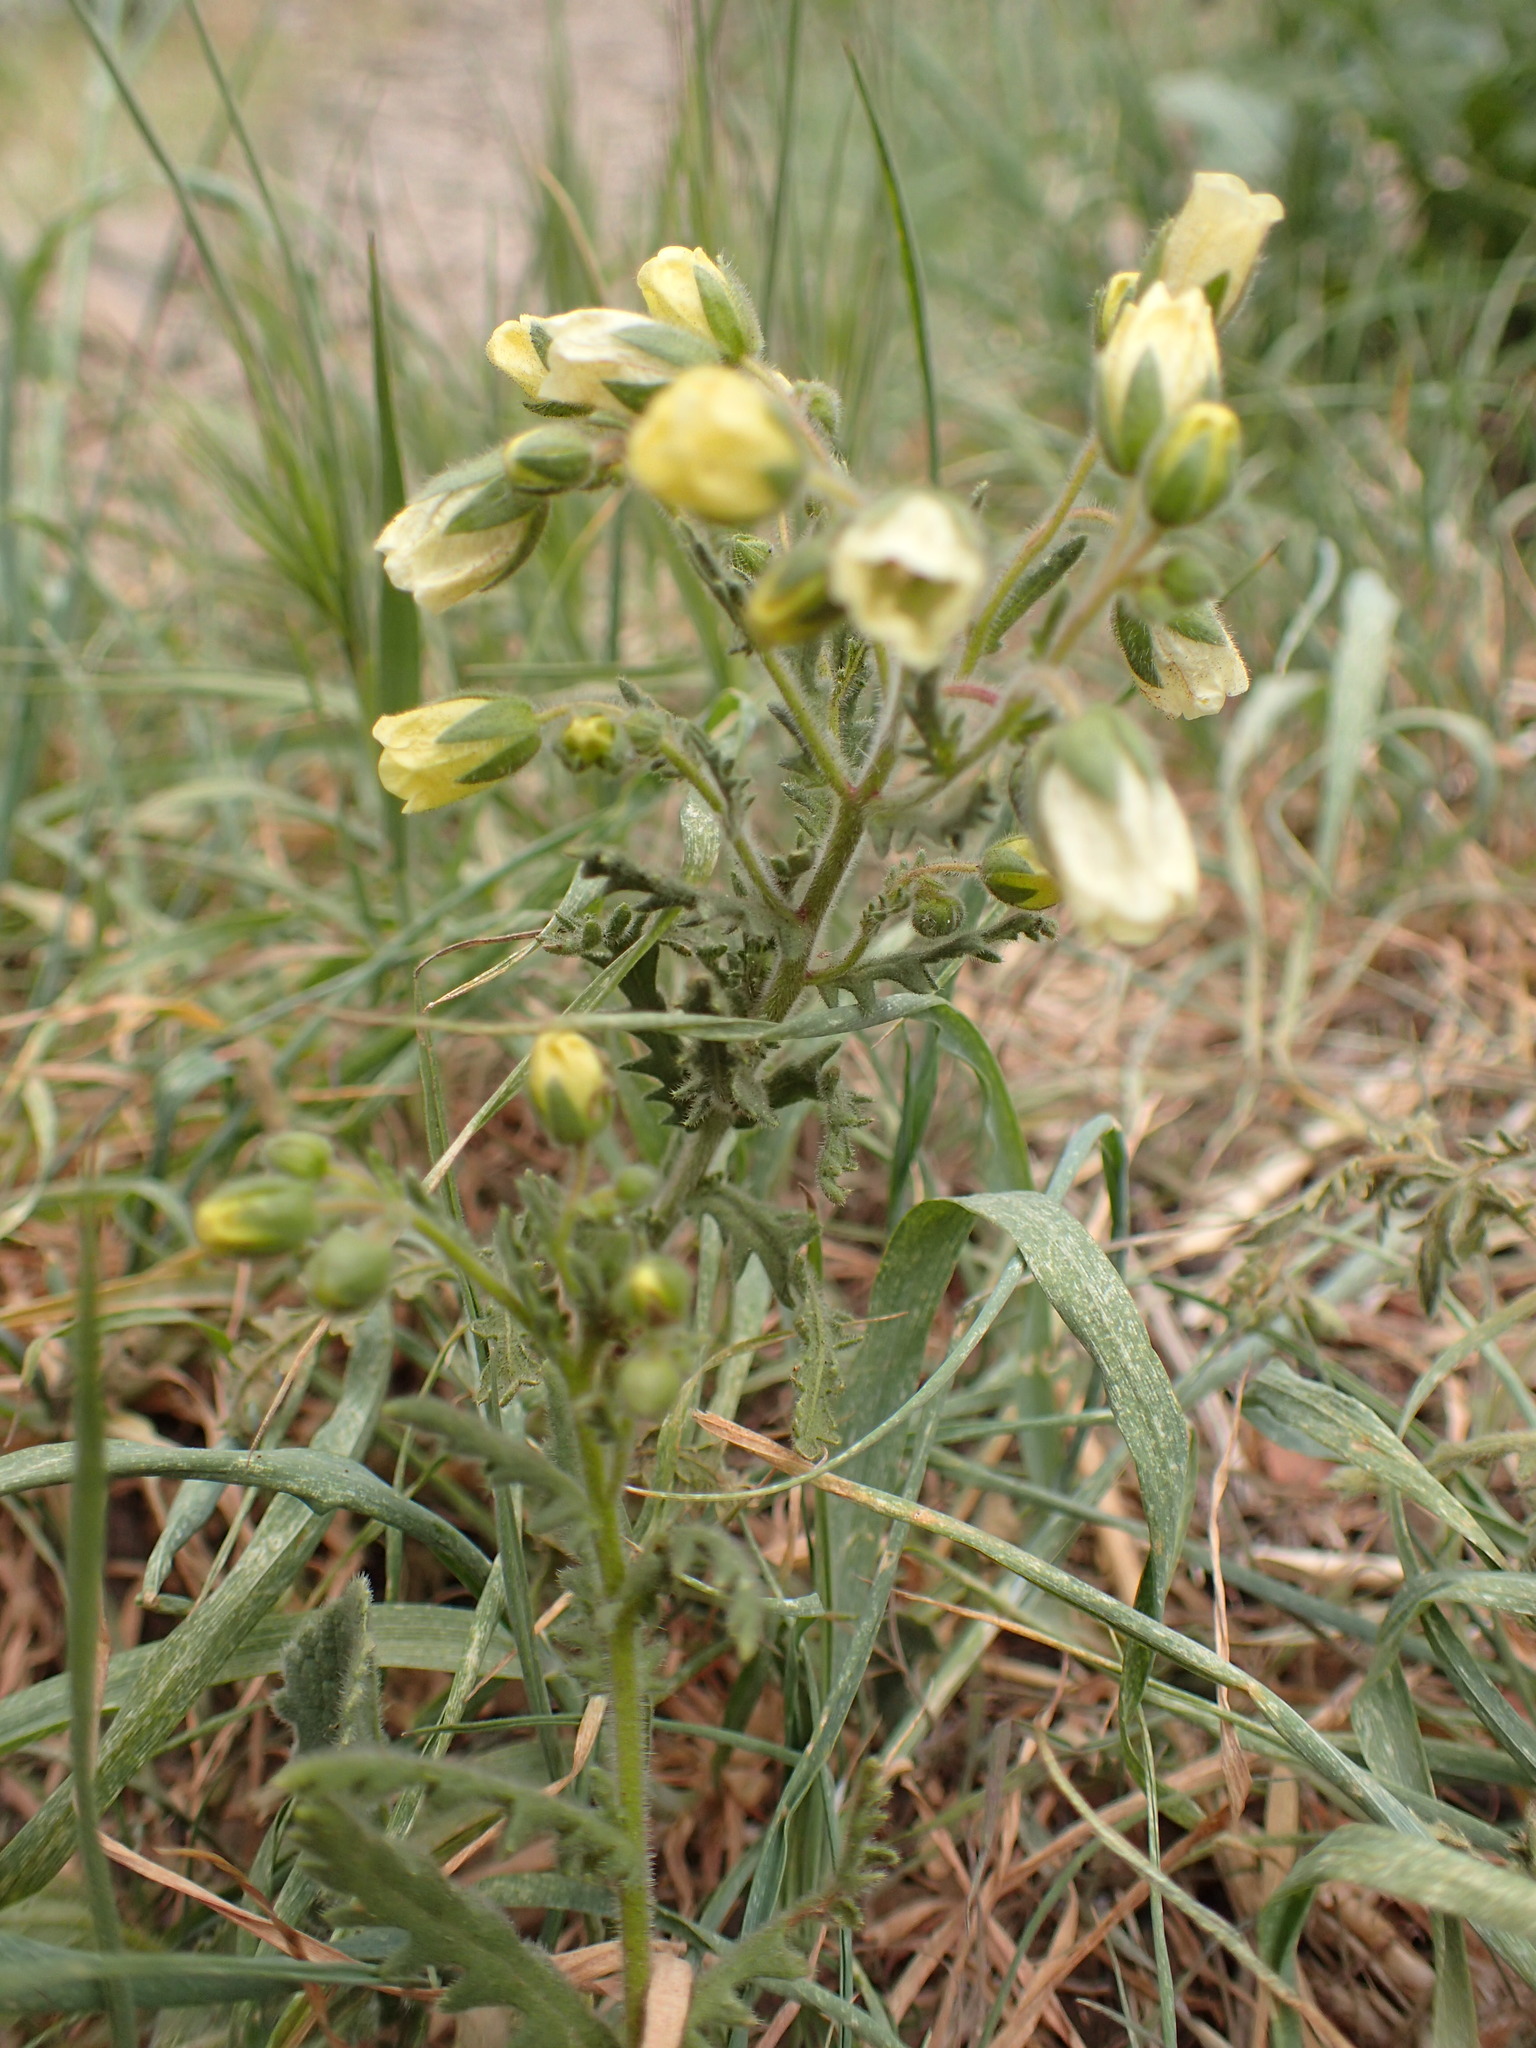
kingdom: Plantae
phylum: Tracheophyta
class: Magnoliopsida
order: Boraginales
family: Hydrophyllaceae
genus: Emmenanthe
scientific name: Emmenanthe penduliflora
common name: Whispering-bells
